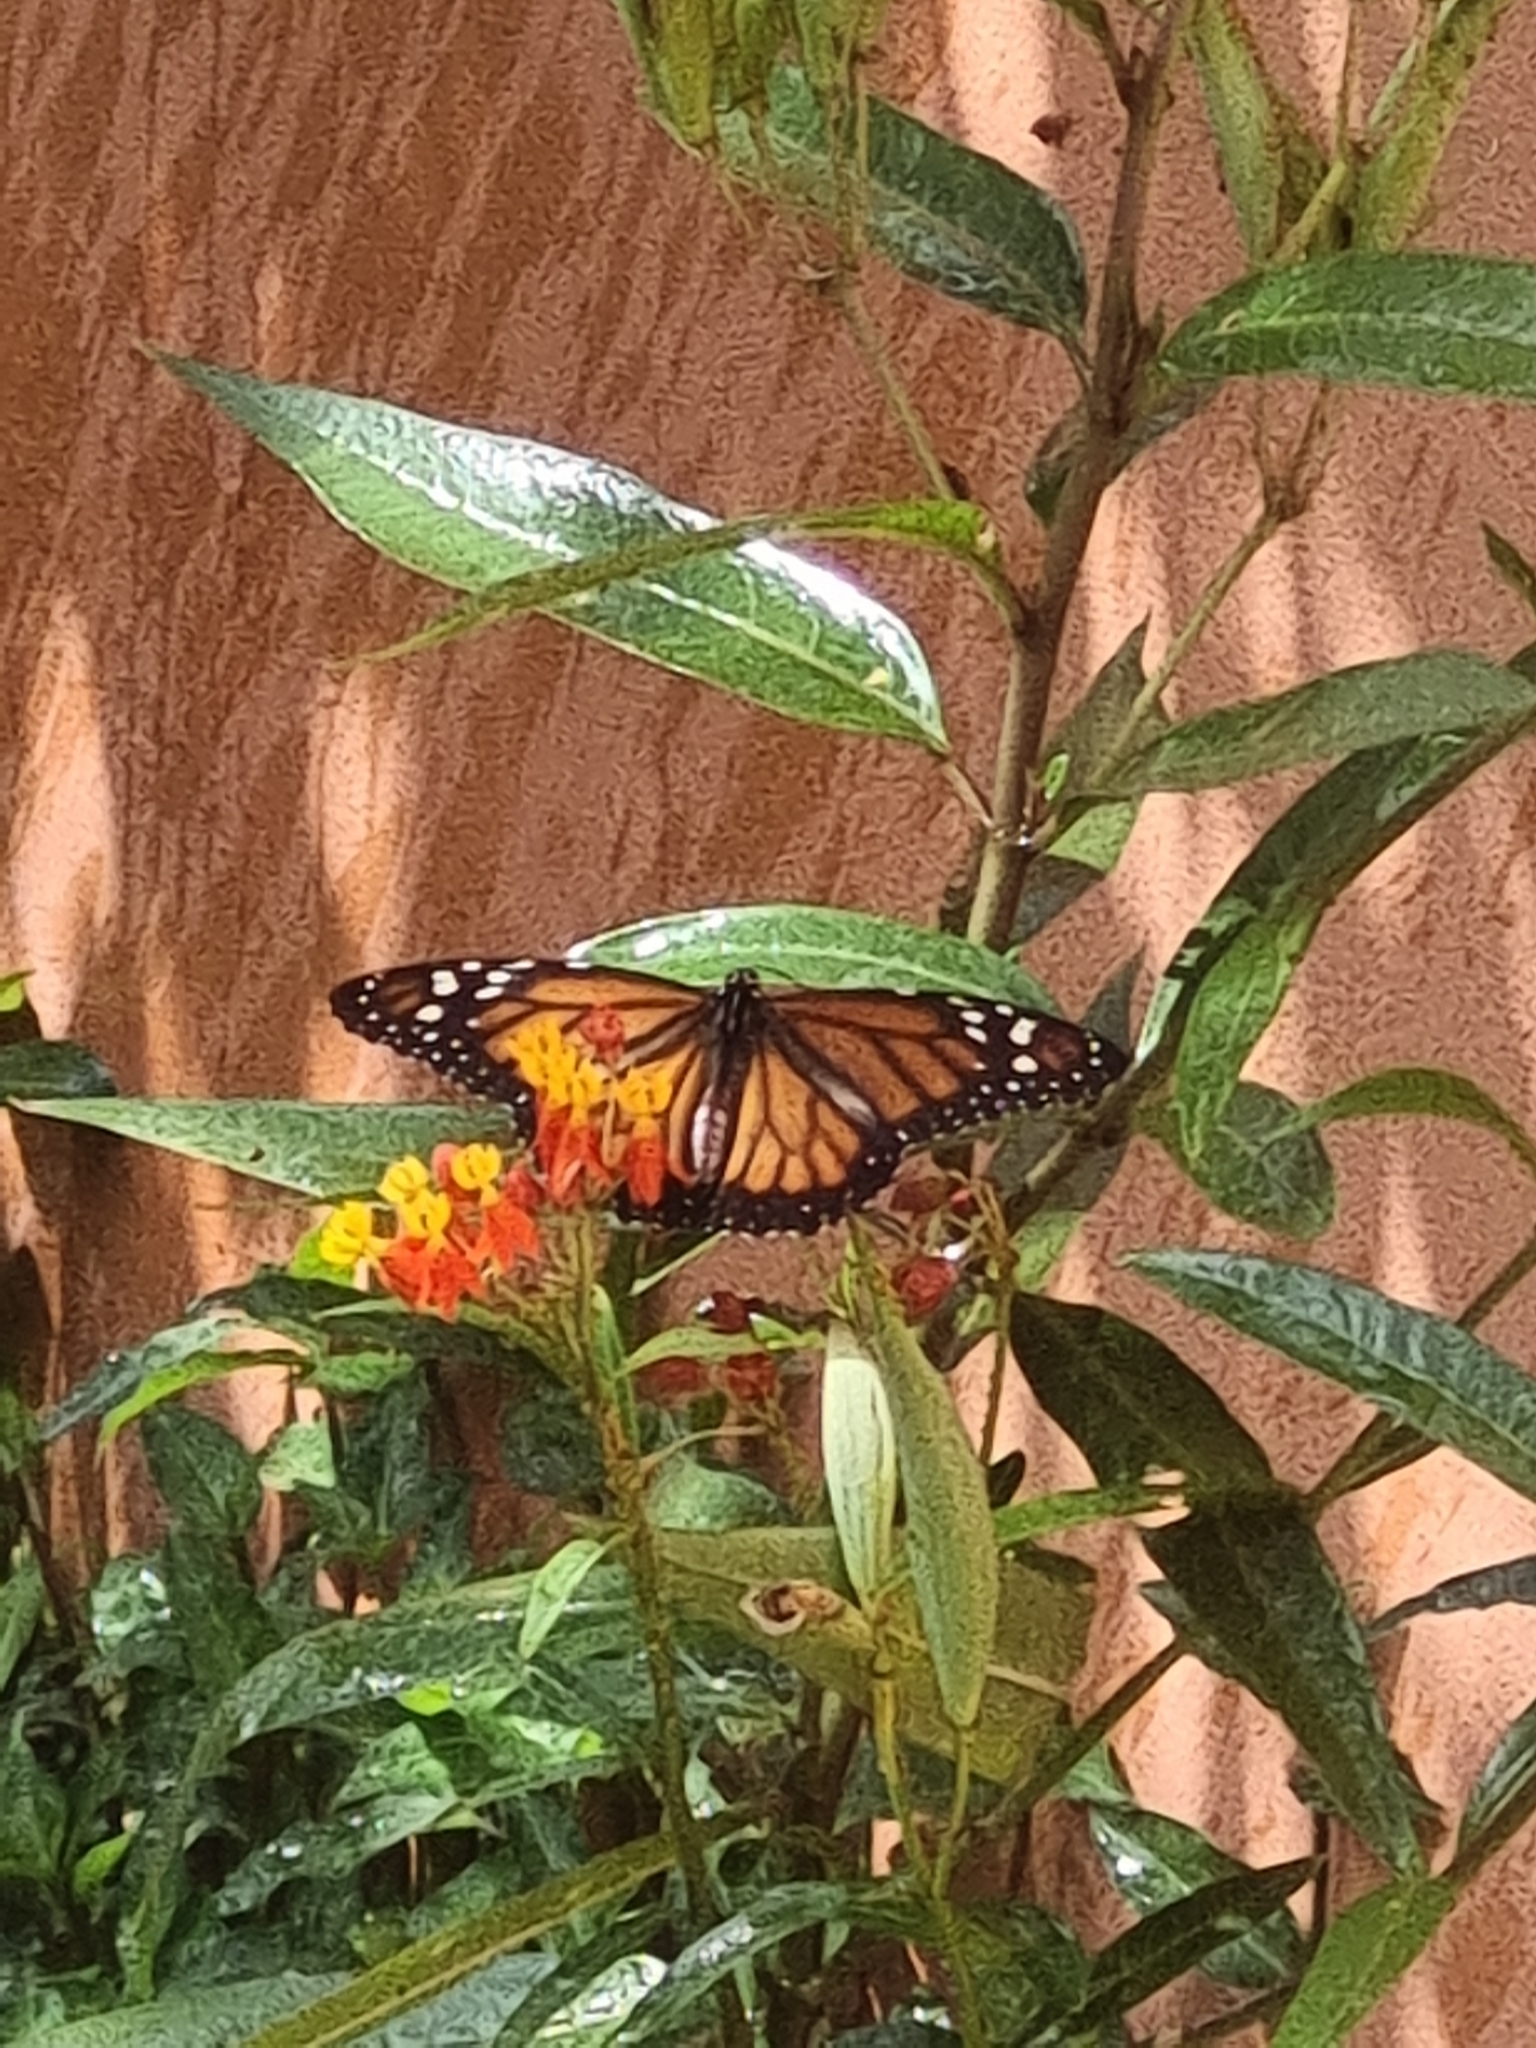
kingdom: Animalia
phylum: Arthropoda
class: Insecta
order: Lepidoptera
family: Nymphalidae
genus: Danaus
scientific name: Danaus erippus
